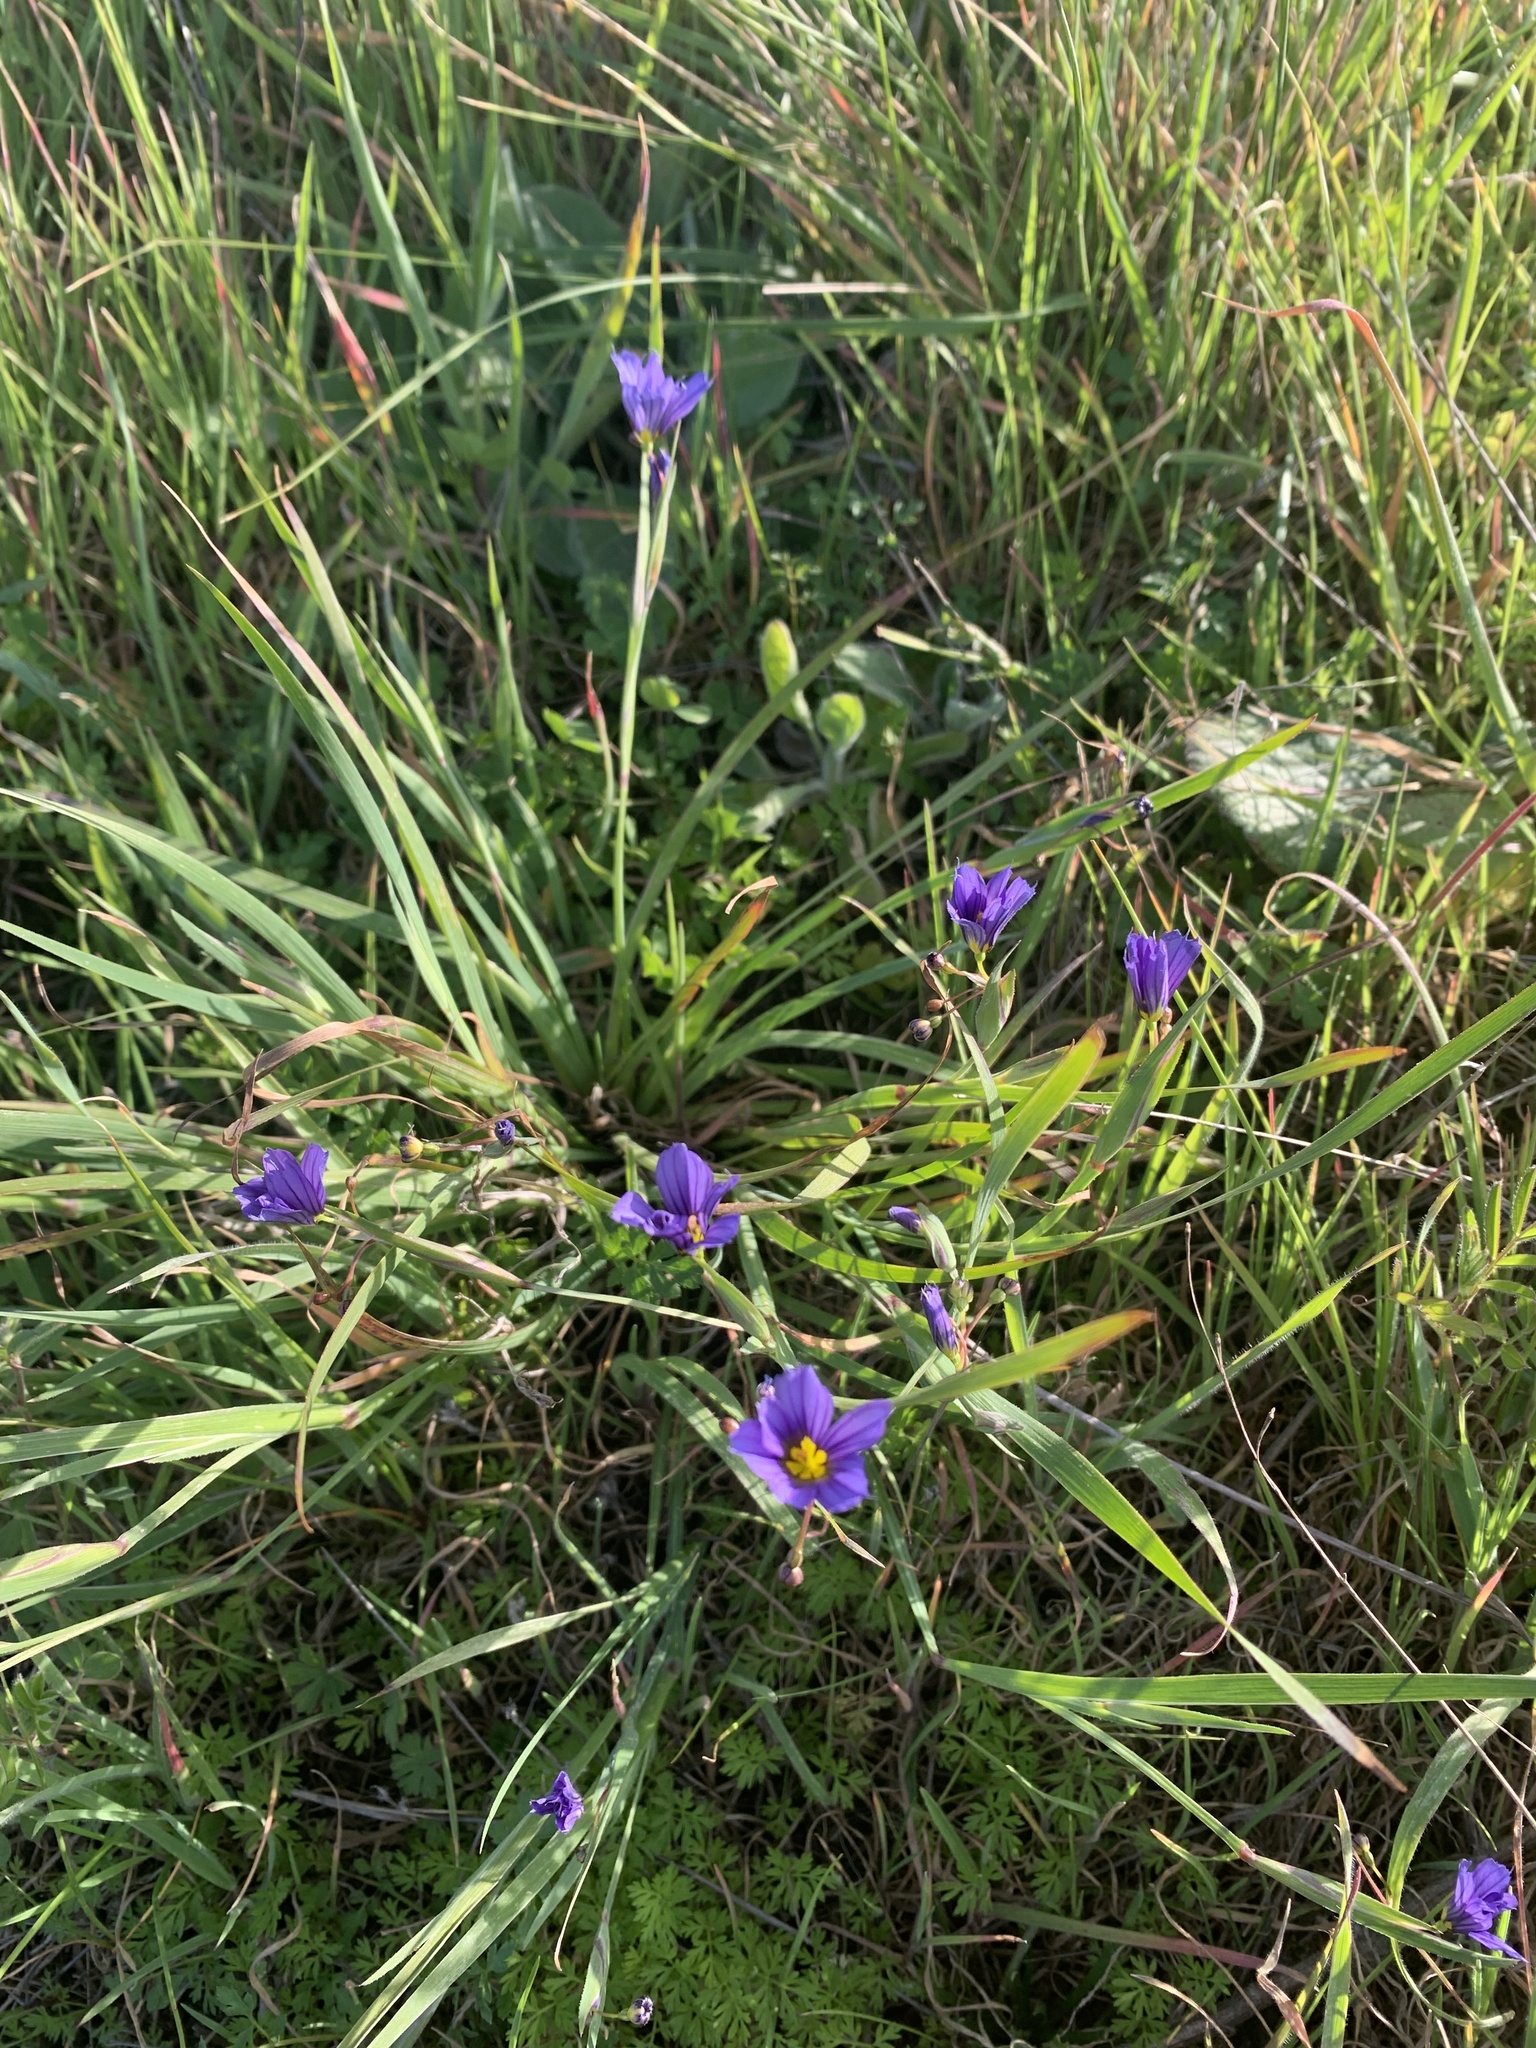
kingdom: Plantae
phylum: Tracheophyta
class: Liliopsida
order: Asparagales
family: Iridaceae
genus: Sisyrinchium
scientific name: Sisyrinchium bellum
